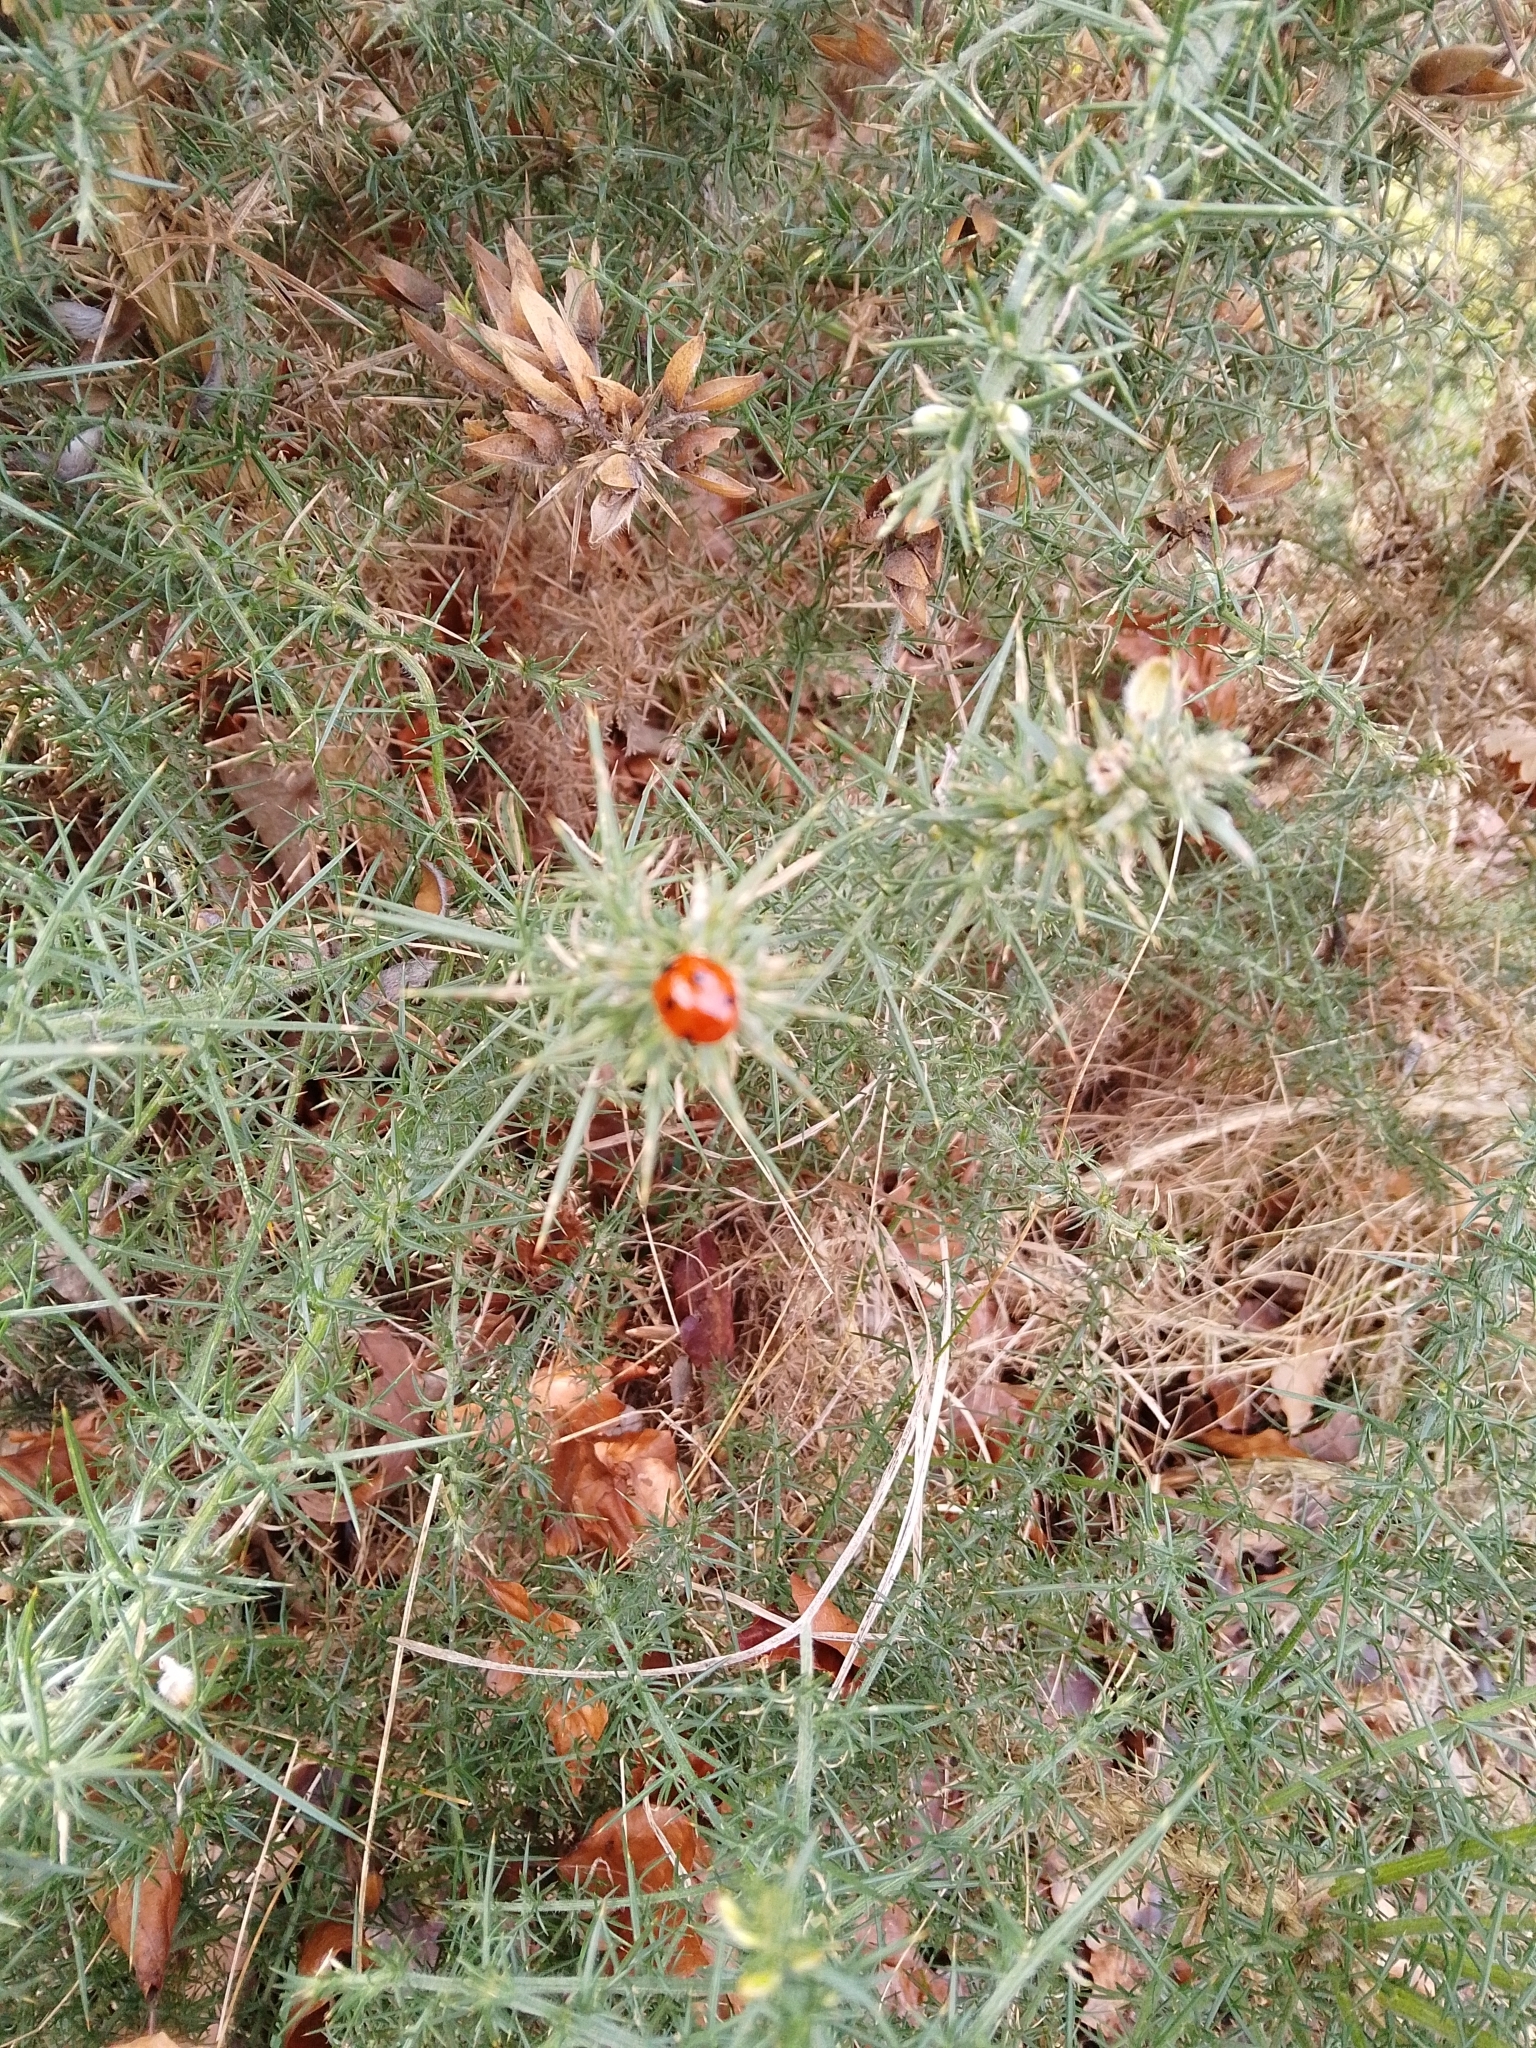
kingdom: Animalia
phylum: Arthropoda
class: Insecta
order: Coleoptera
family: Coccinellidae
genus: Coccinella
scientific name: Coccinella septempunctata
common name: Sevenspotted lady beetle
